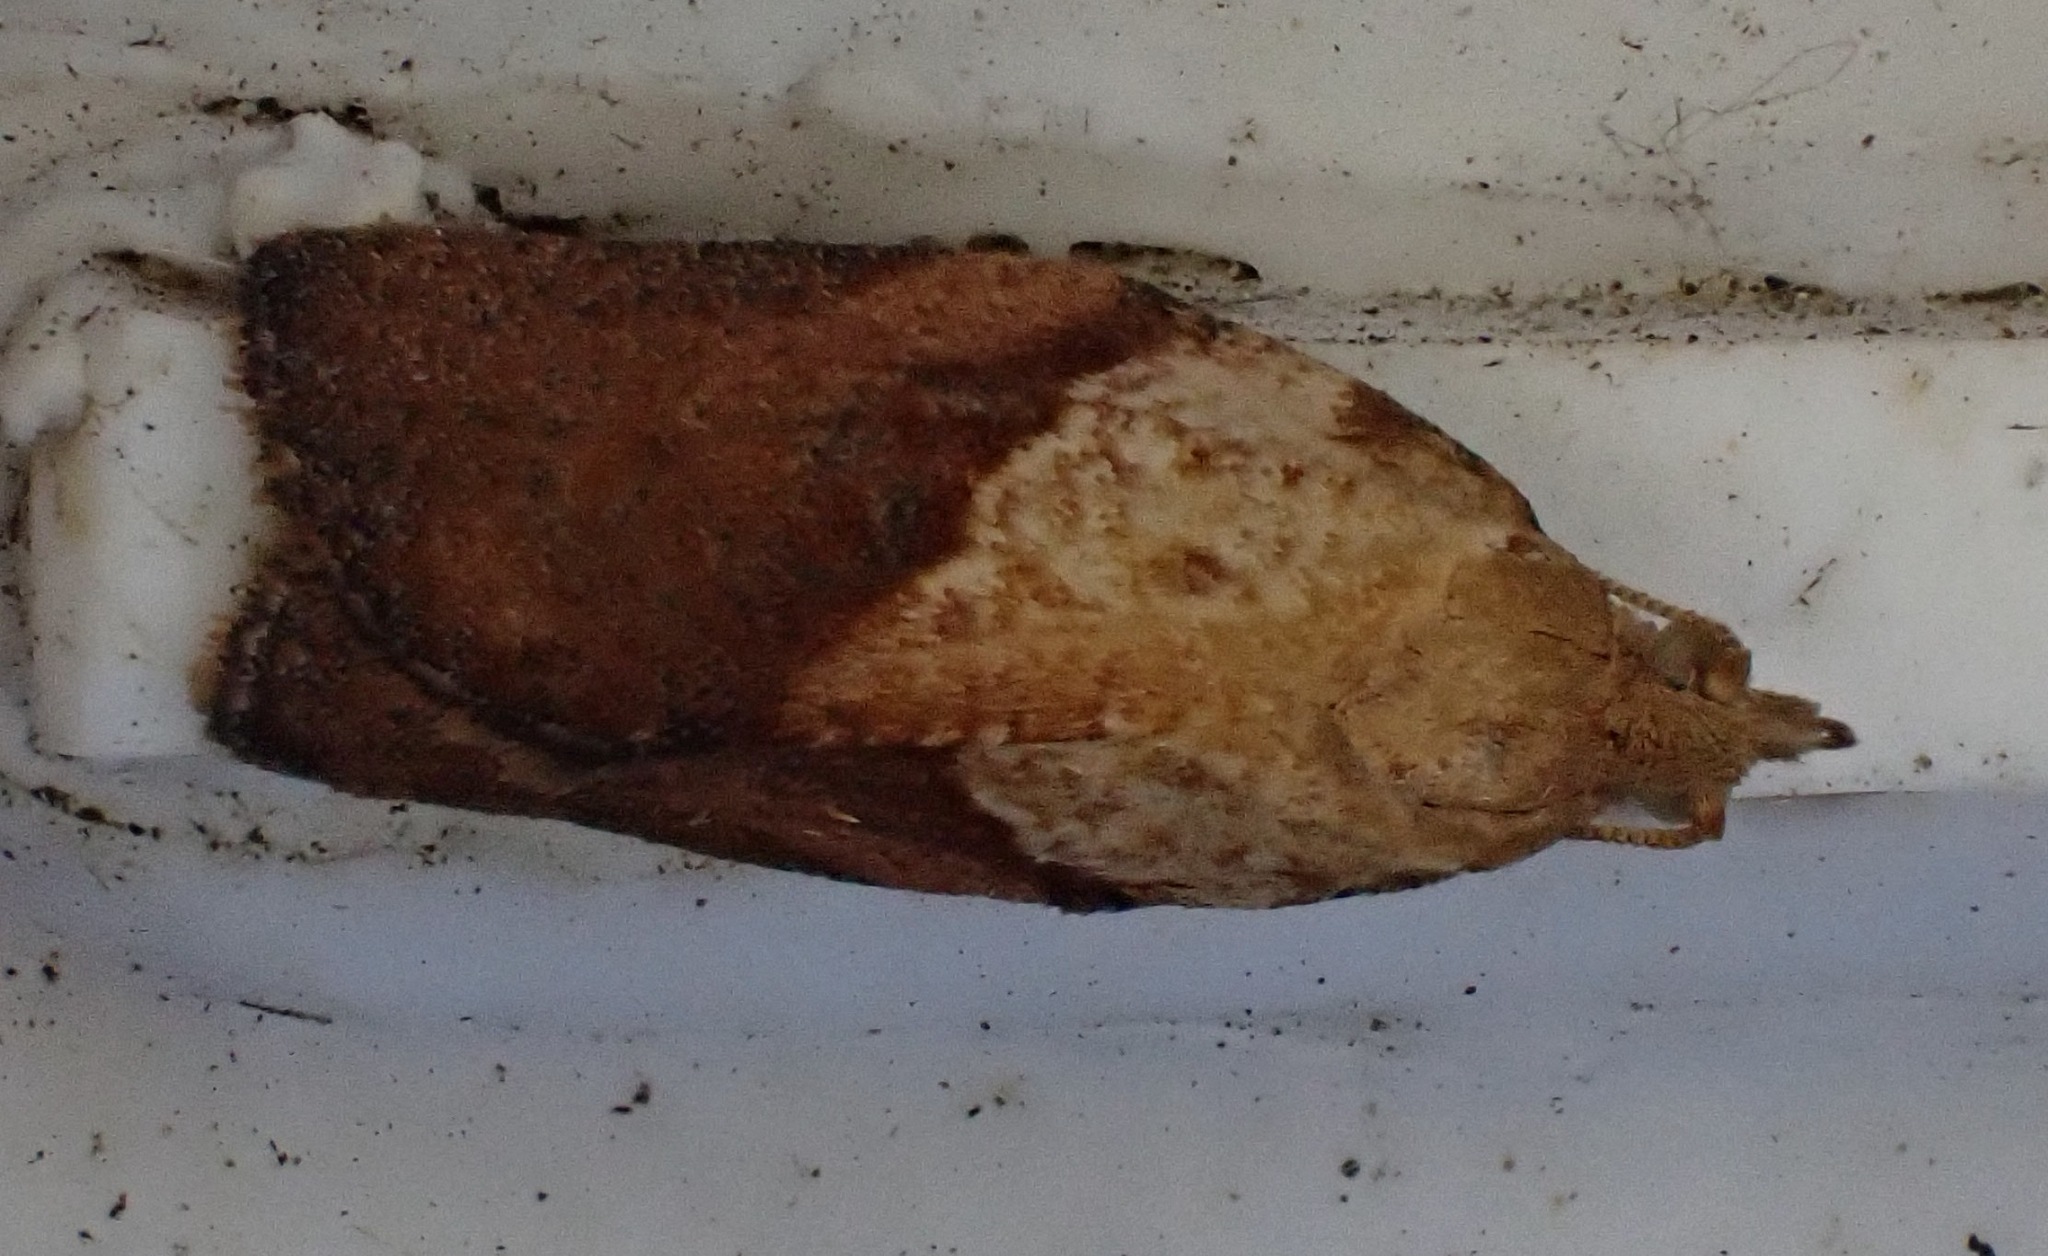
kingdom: Animalia
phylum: Arthropoda
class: Insecta
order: Lepidoptera
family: Tortricidae
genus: Epiphyas
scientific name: Epiphyas postvittana
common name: Light brown apple moth
